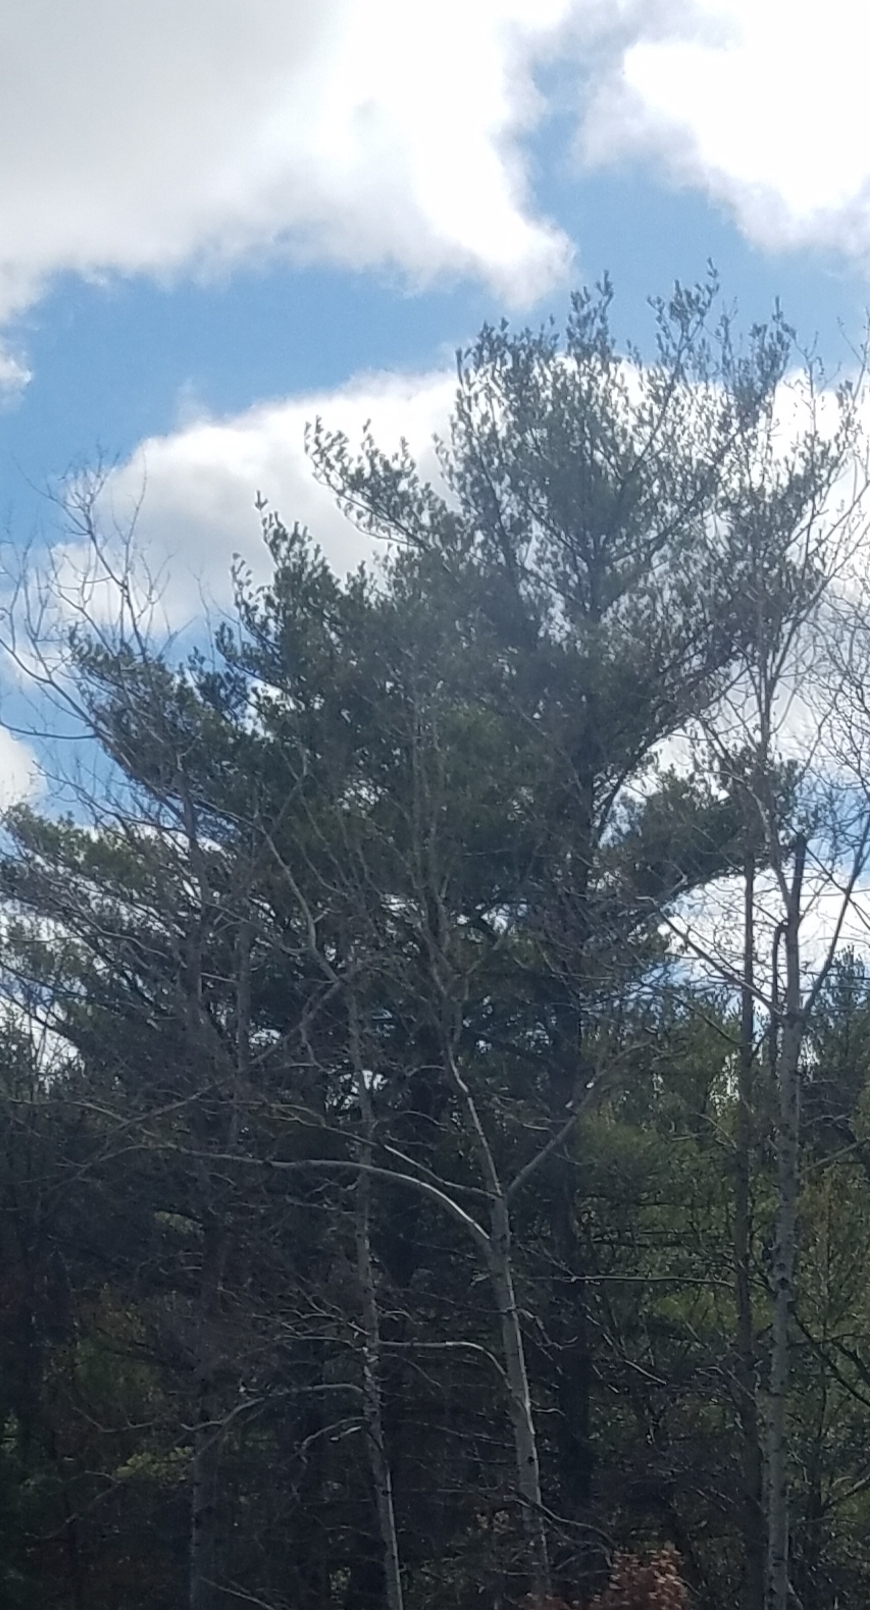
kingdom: Plantae
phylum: Tracheophyta
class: Pinopsida
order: Pinales
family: Pinaceae
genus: Pinus
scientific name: Pinus strobus
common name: Weymouth pine
